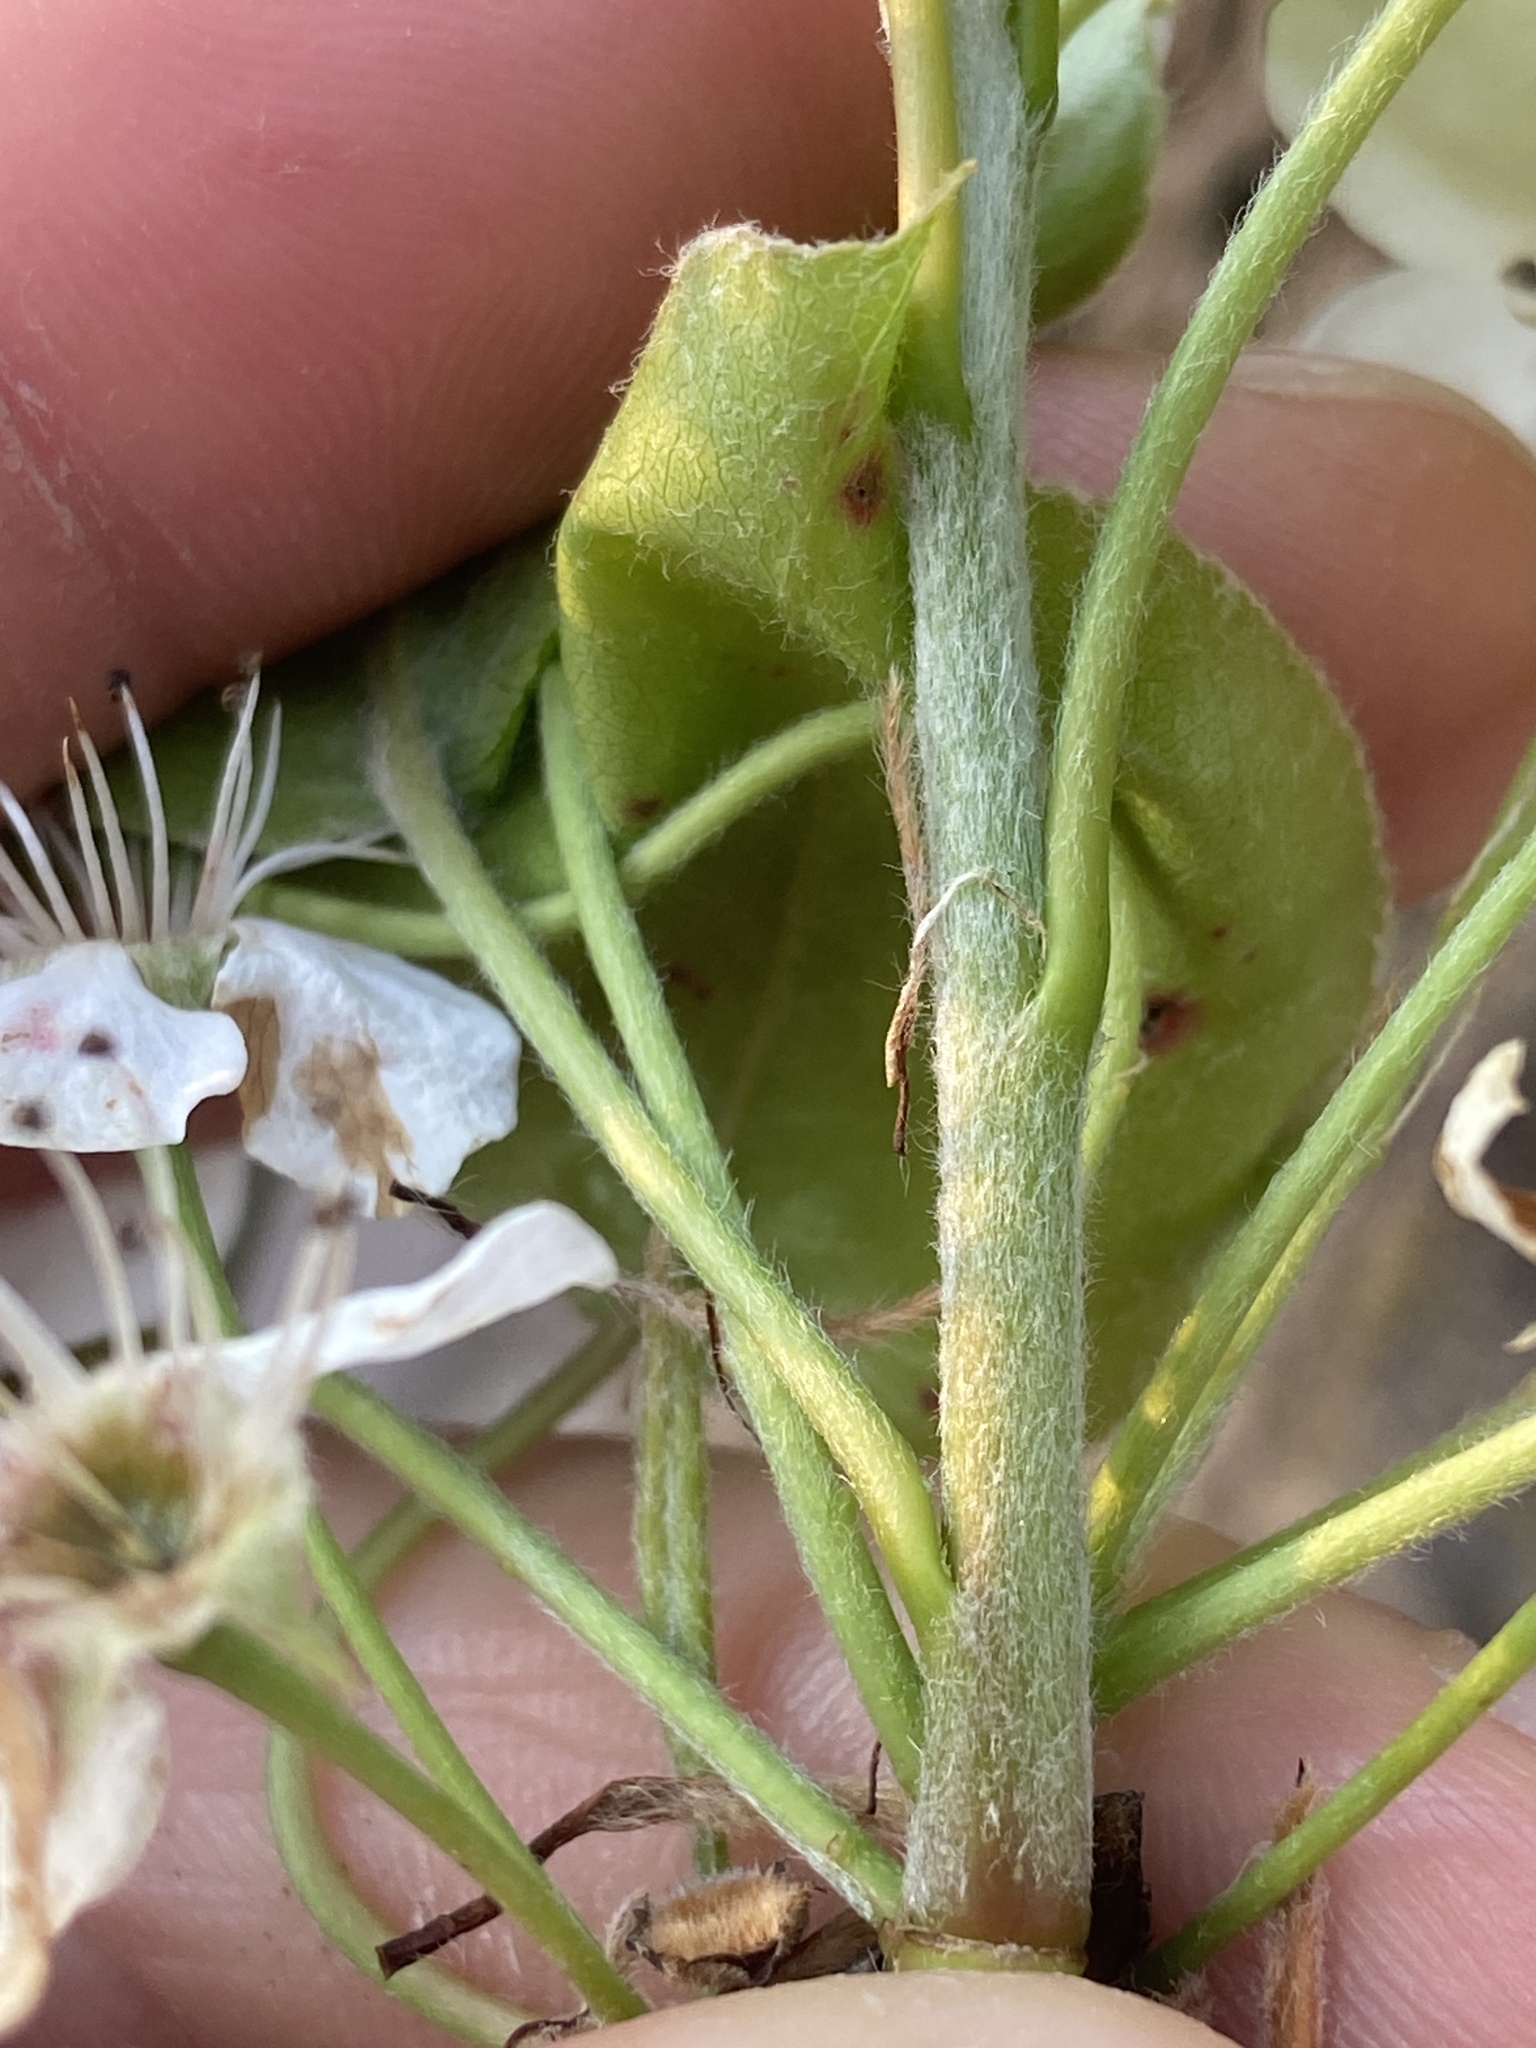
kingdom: Plantae
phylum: Tracheophyta
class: Magnoliopsida
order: Rosales
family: Rosaceae
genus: Pyrus
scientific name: Pyrus calleryana
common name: Callery pear
